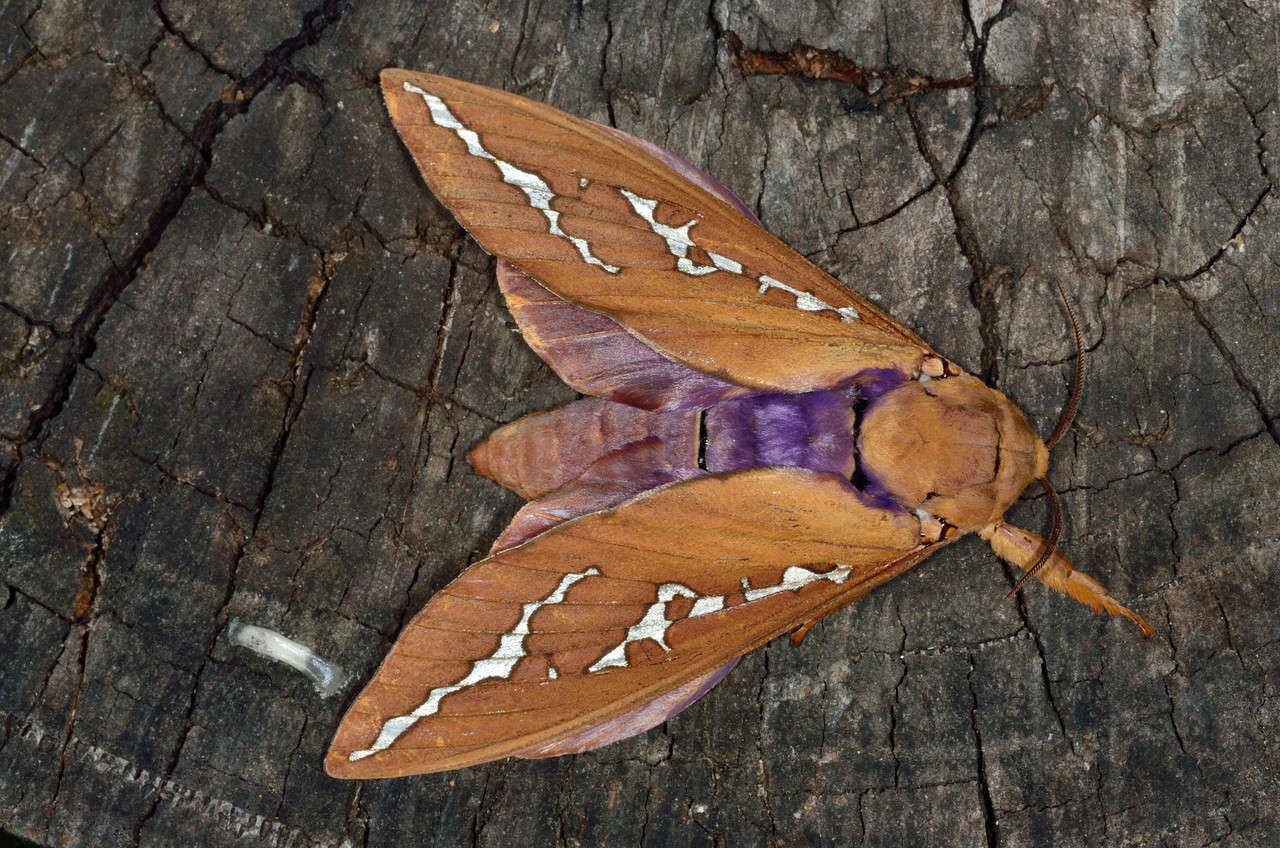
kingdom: Animalia
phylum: Arthropoda
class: Insecta
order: Lepidoptera
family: Hepialidae
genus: Abantiades
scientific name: Abantiades hyalinatus
